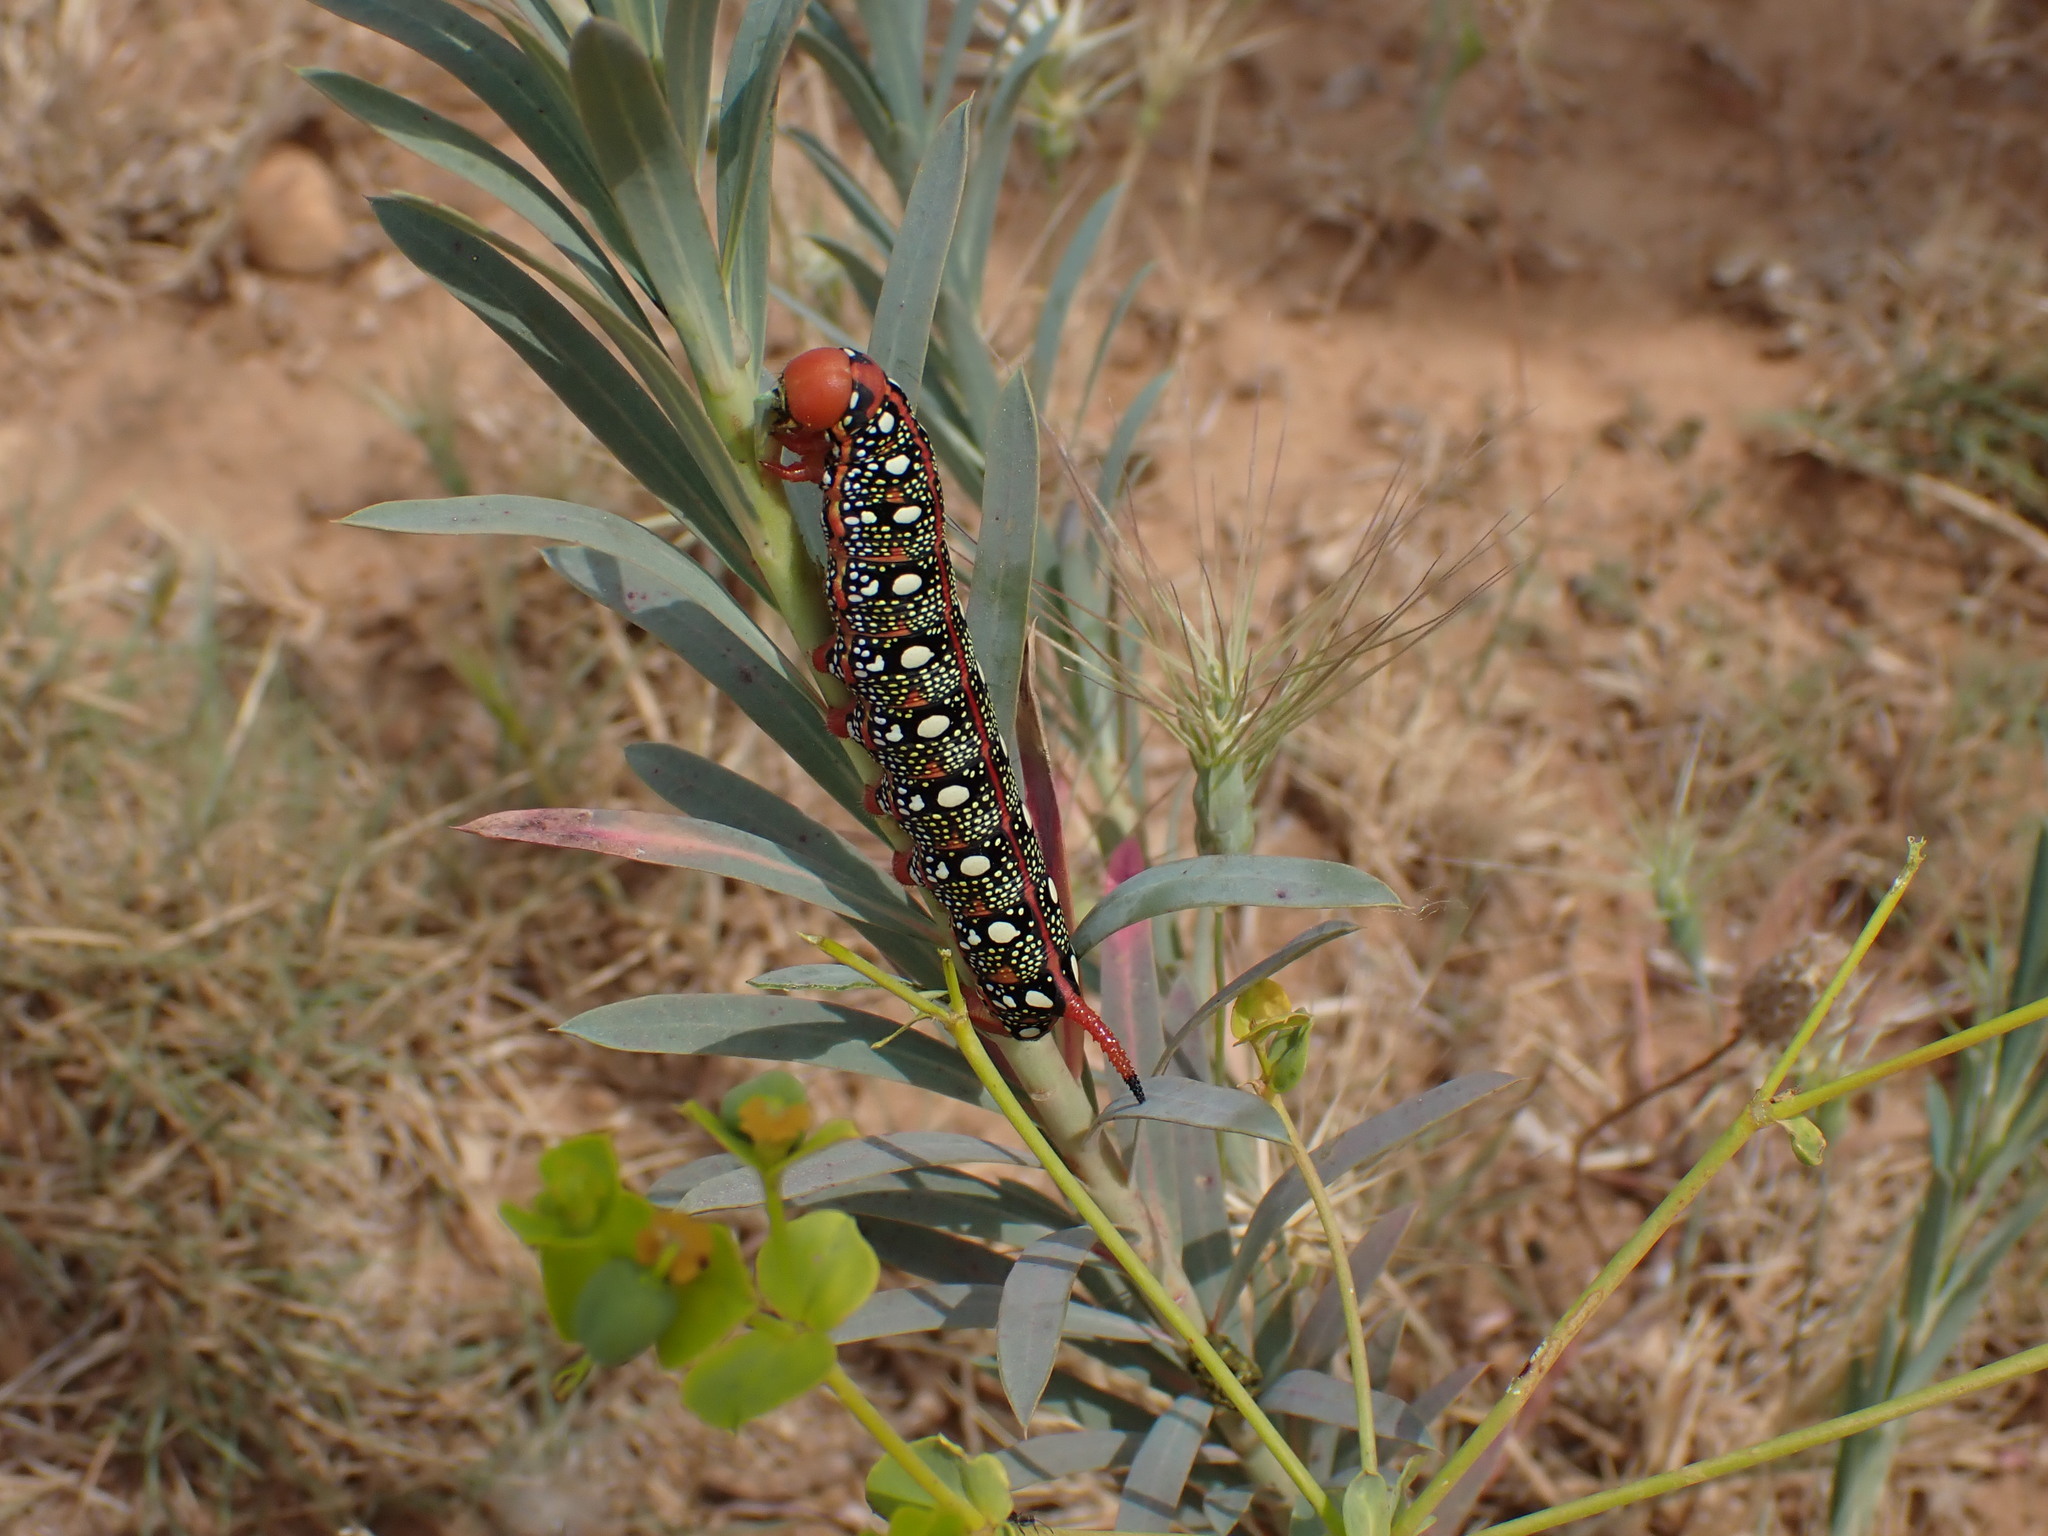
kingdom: Animalia
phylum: Arthropoda
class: Insecta
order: Lepidoptera
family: Sphingidae
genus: Hyles
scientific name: Hyles euphorbiae
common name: Spurge hawk-moth
